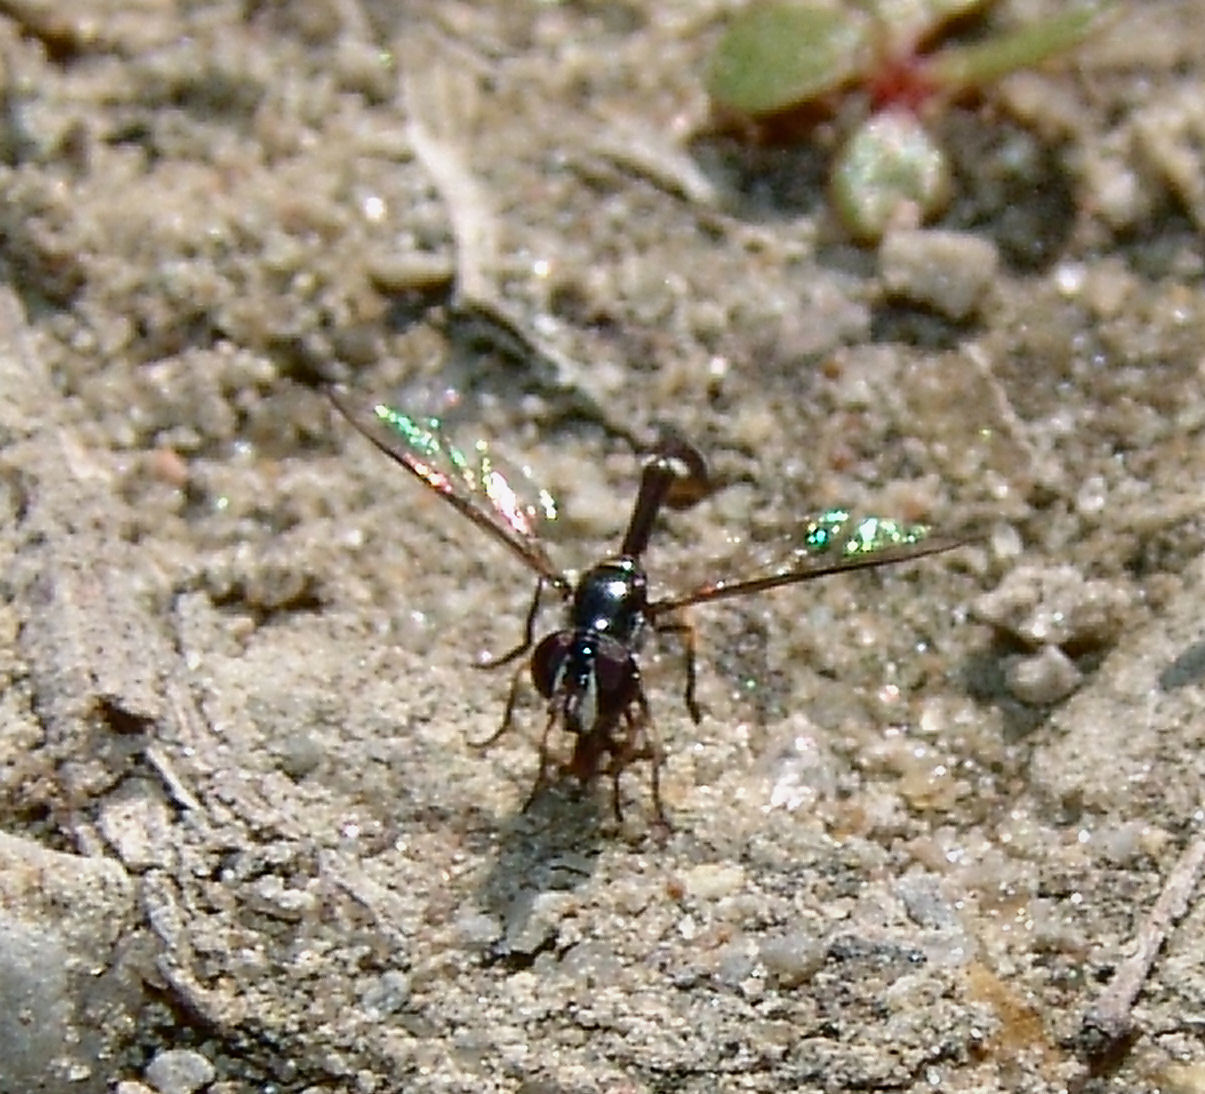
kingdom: Animalia
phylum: Arthropoda
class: Insecta
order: Diptera
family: Syrphidae
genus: Dioprosopa
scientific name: Dioprosopa clavatus
